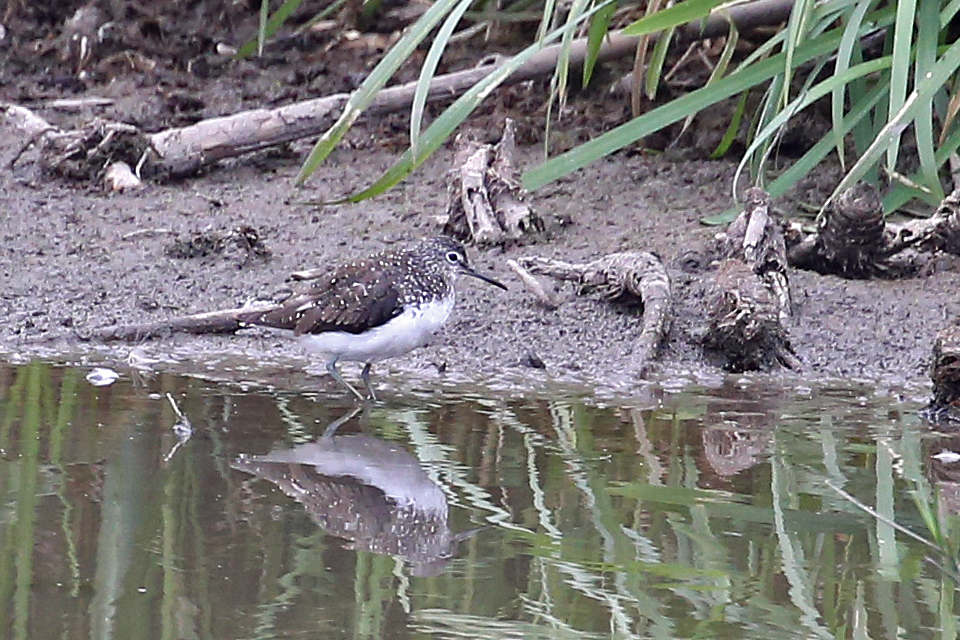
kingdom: Animalia
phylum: Chordata
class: Aves
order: Charadriiformes
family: Scolopacidae
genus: Tringa
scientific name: Tringa ochropus
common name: Green sandpiper
